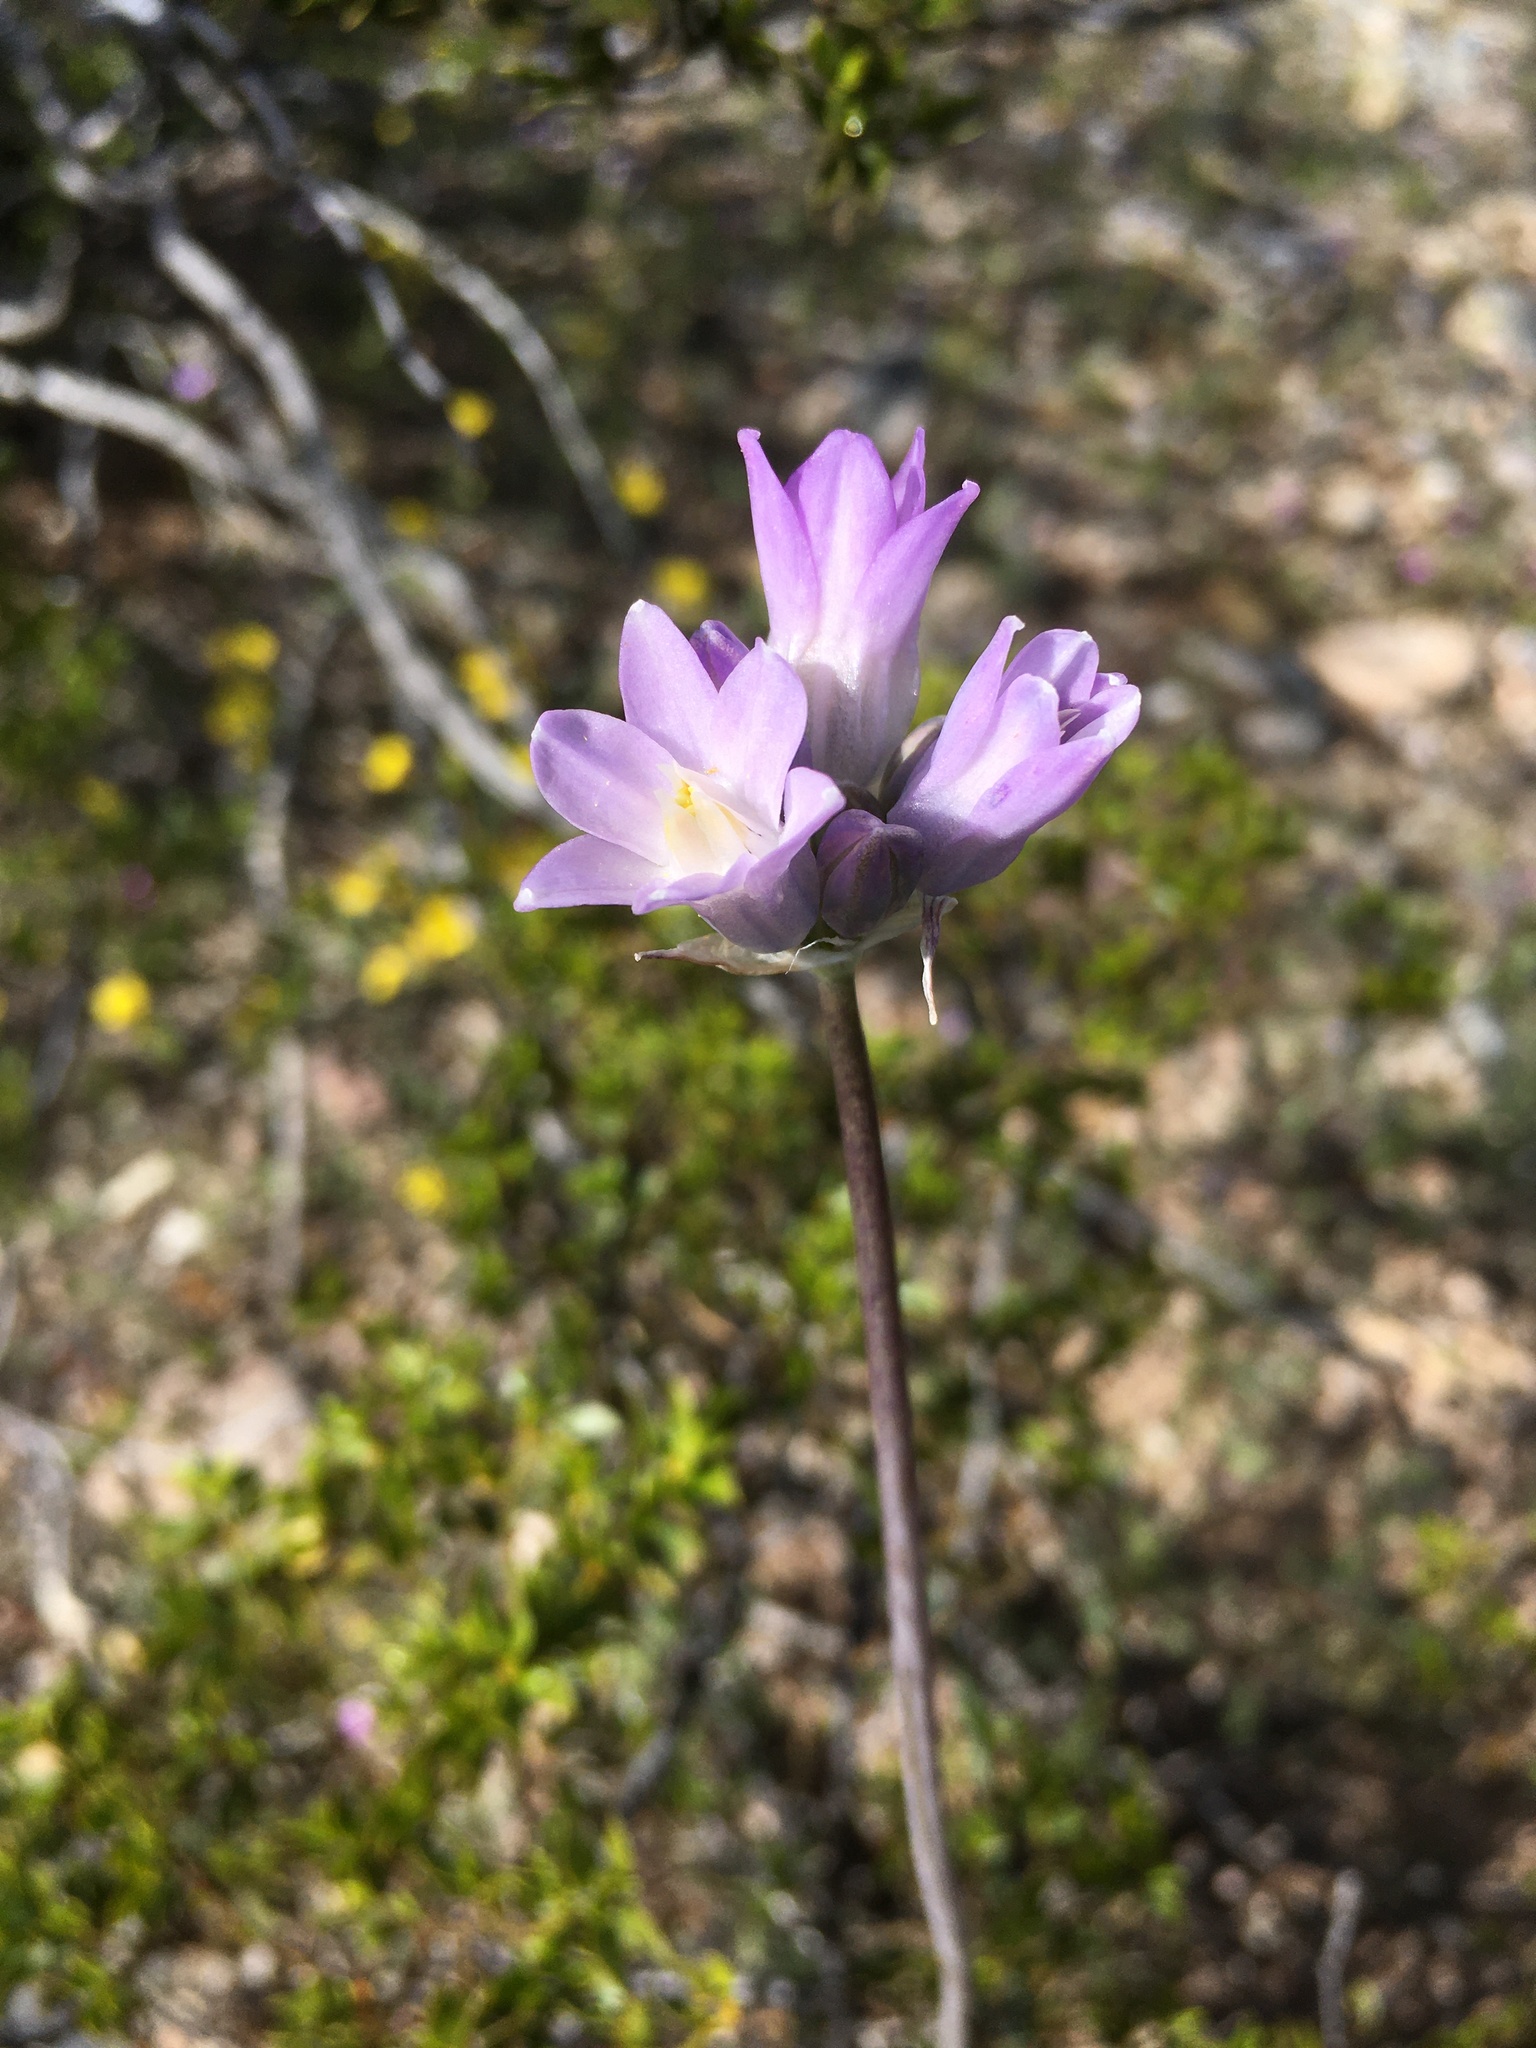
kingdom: Plantae
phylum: Tracheophyta
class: Liliopsida
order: Asparagales
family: Asparagaceae
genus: Dipterostemon
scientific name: Dipterostemon capitatus
